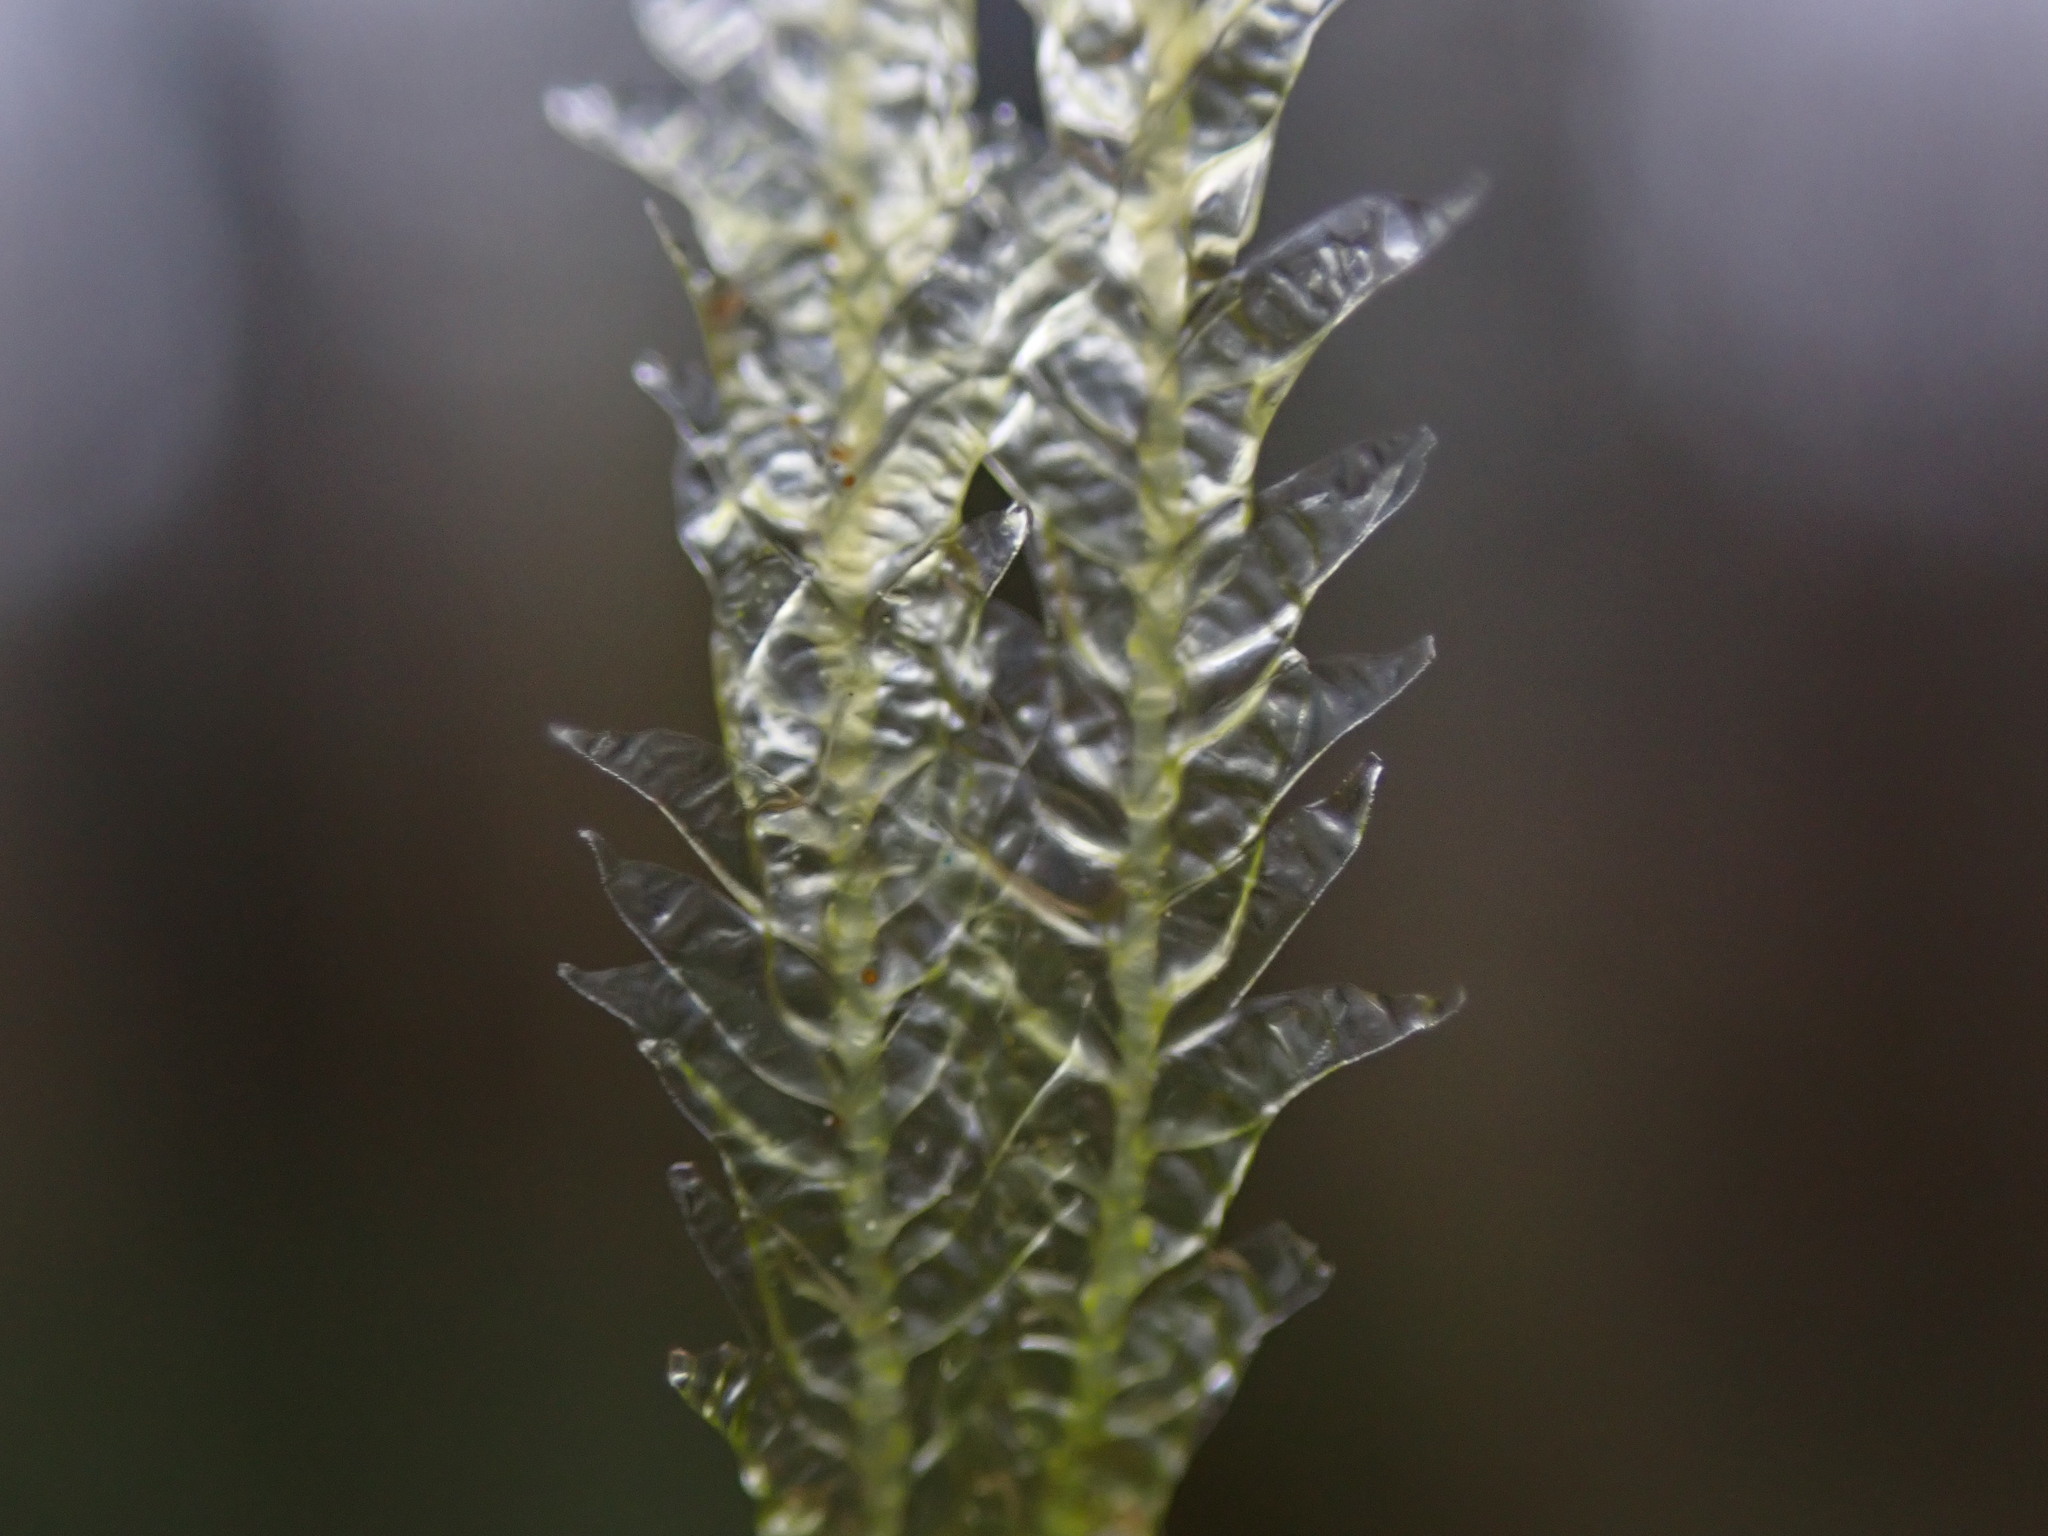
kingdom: Plantae
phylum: Bryophyta
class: Bryopsida
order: Hypnales
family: Neckeraceae
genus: Neckera
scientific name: Neckera douglasii
